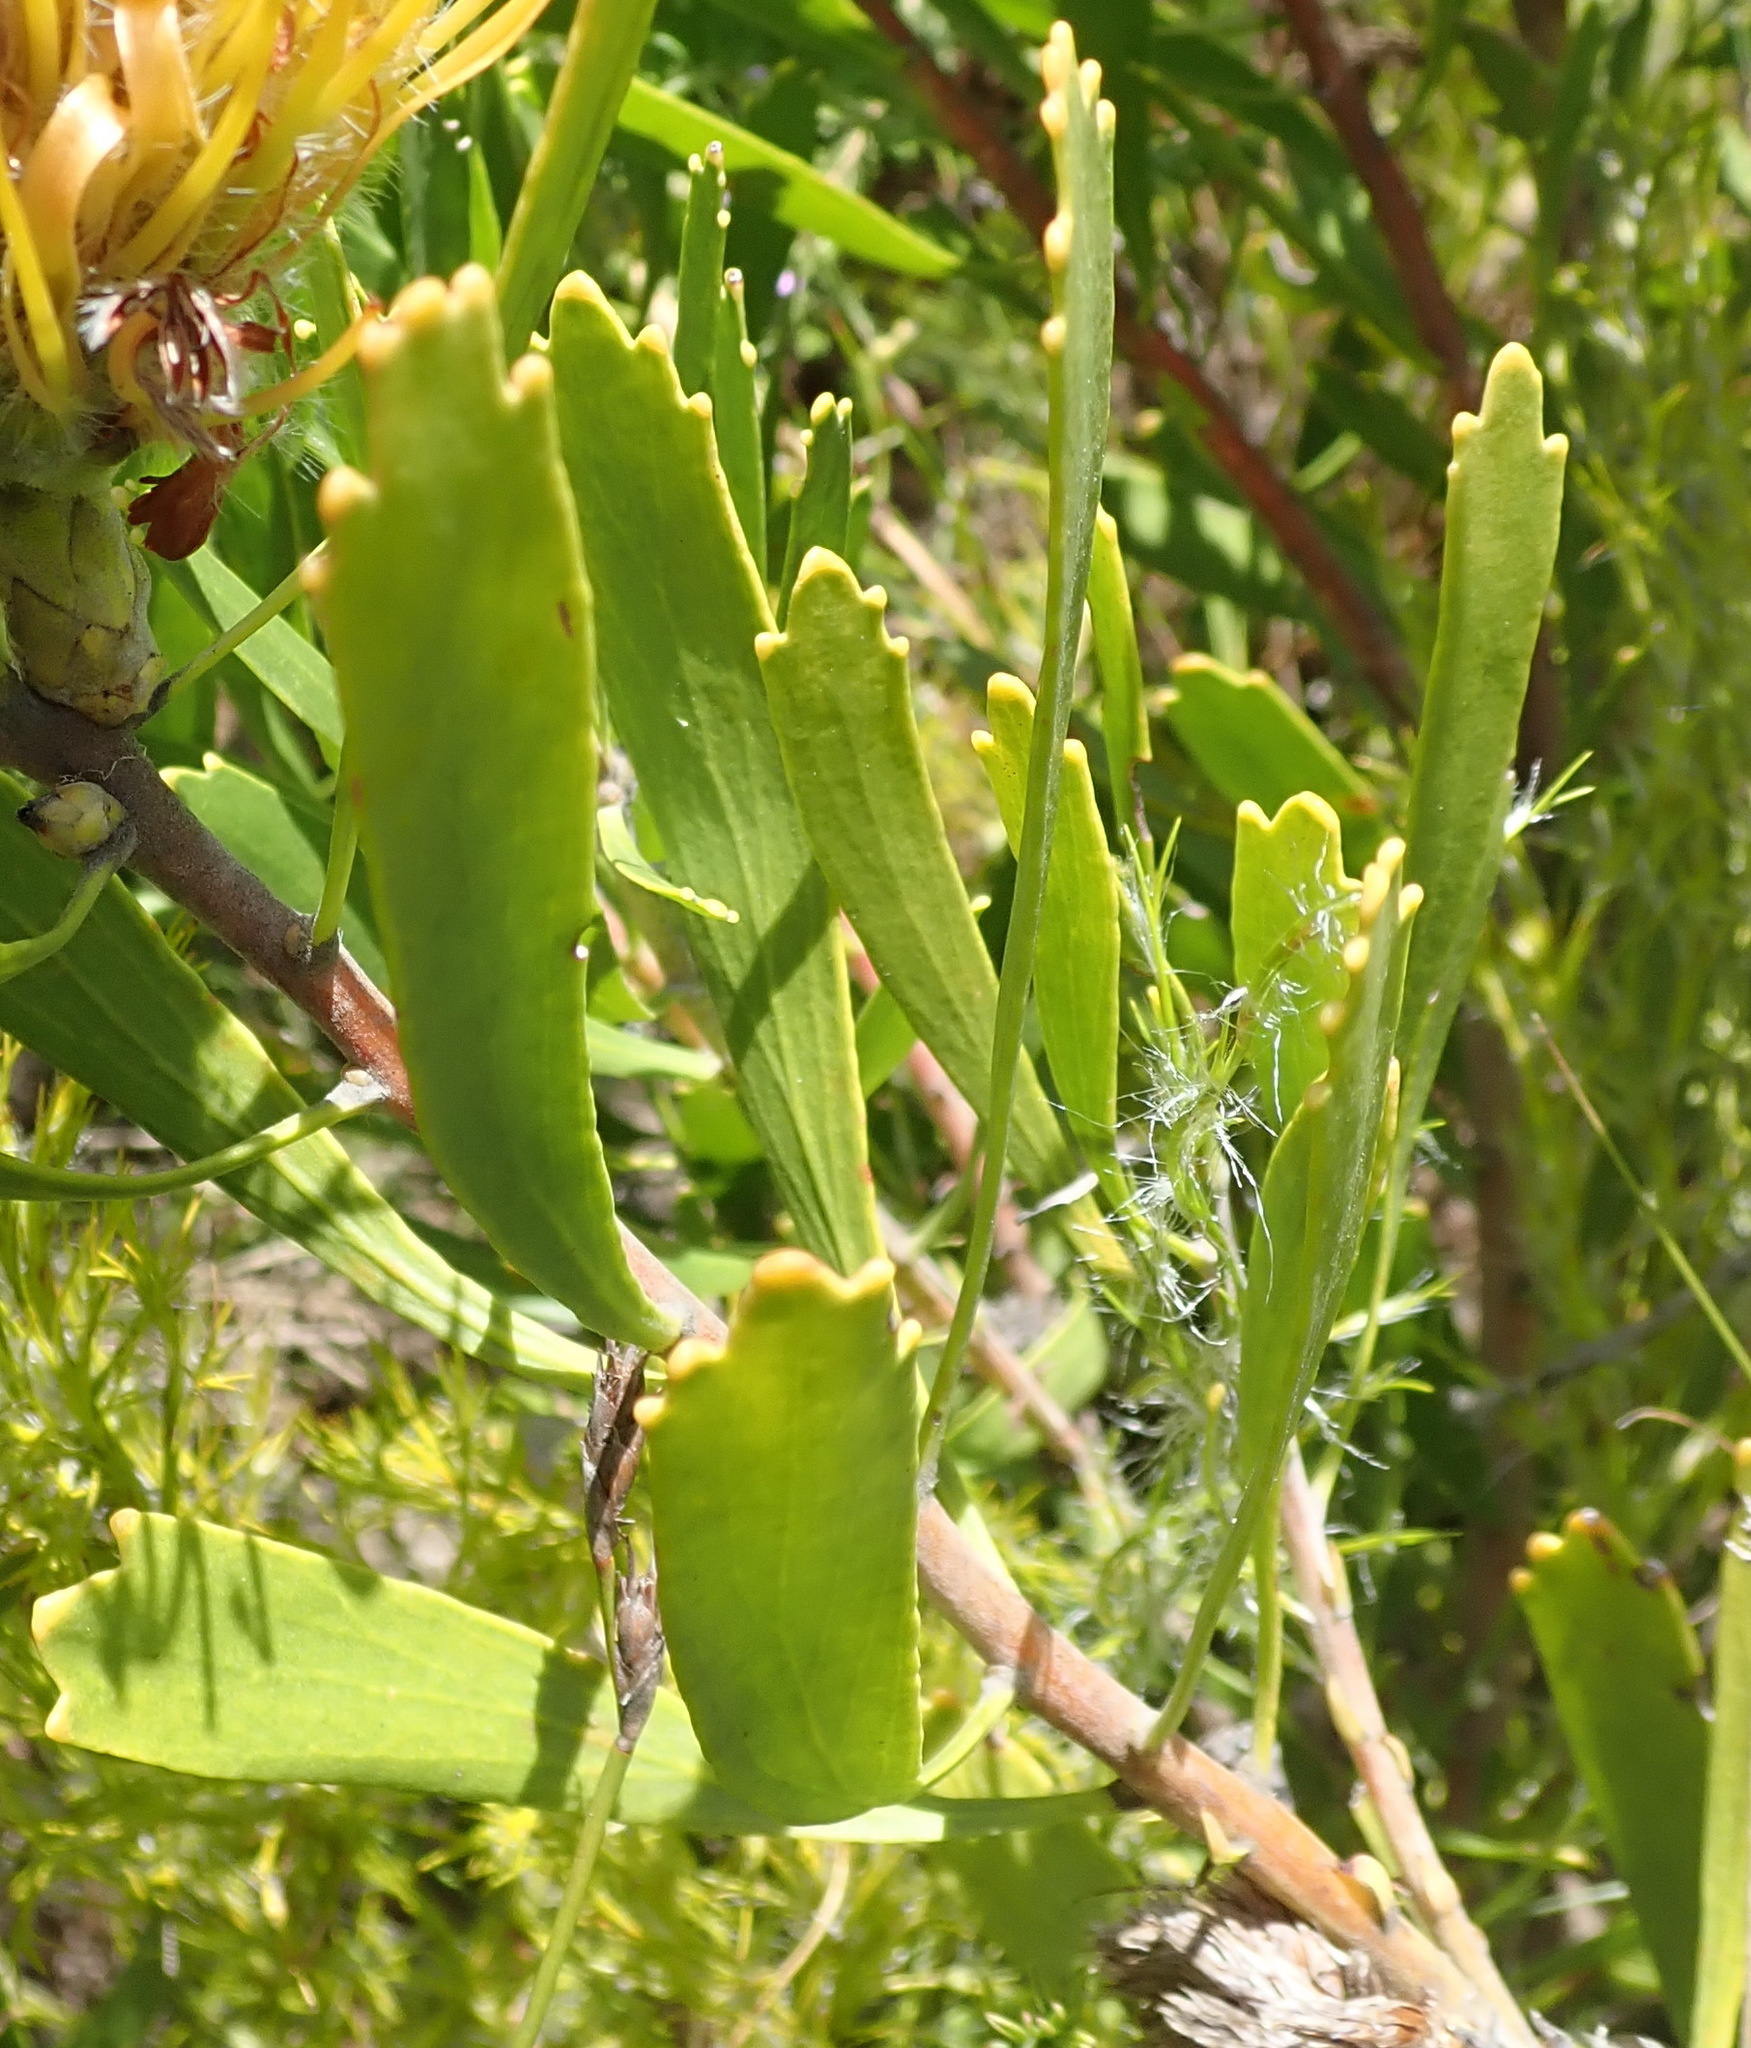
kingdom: Plantae
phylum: Tracheophyta
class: Magnoliopsida
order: Proteales
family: Proteaceae
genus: Leucospermum
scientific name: Leucospermum cuneiforme
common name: Common pincushion
